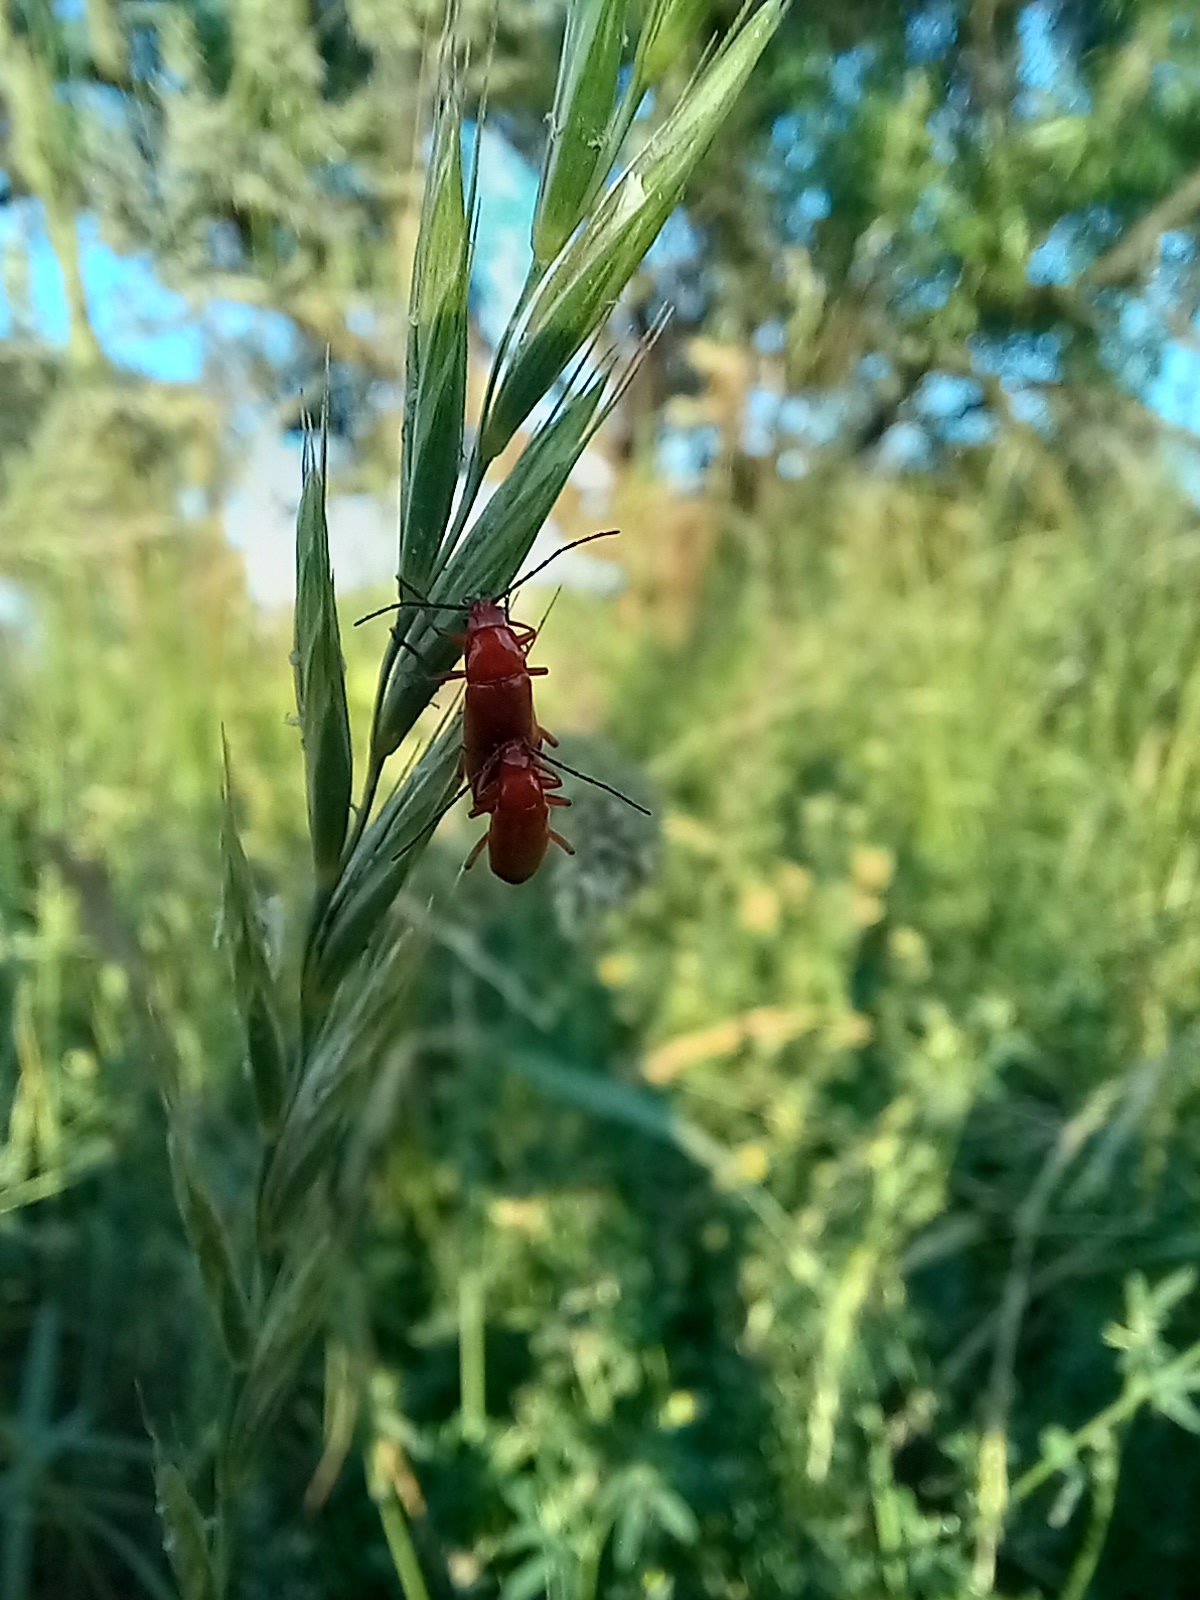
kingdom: Animalia
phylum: Arthropoda
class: Insecta
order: Coleoptera
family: Cantharidae
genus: Rhagonycha
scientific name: Rhagonycha fulva
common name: Common red soldier beetle
